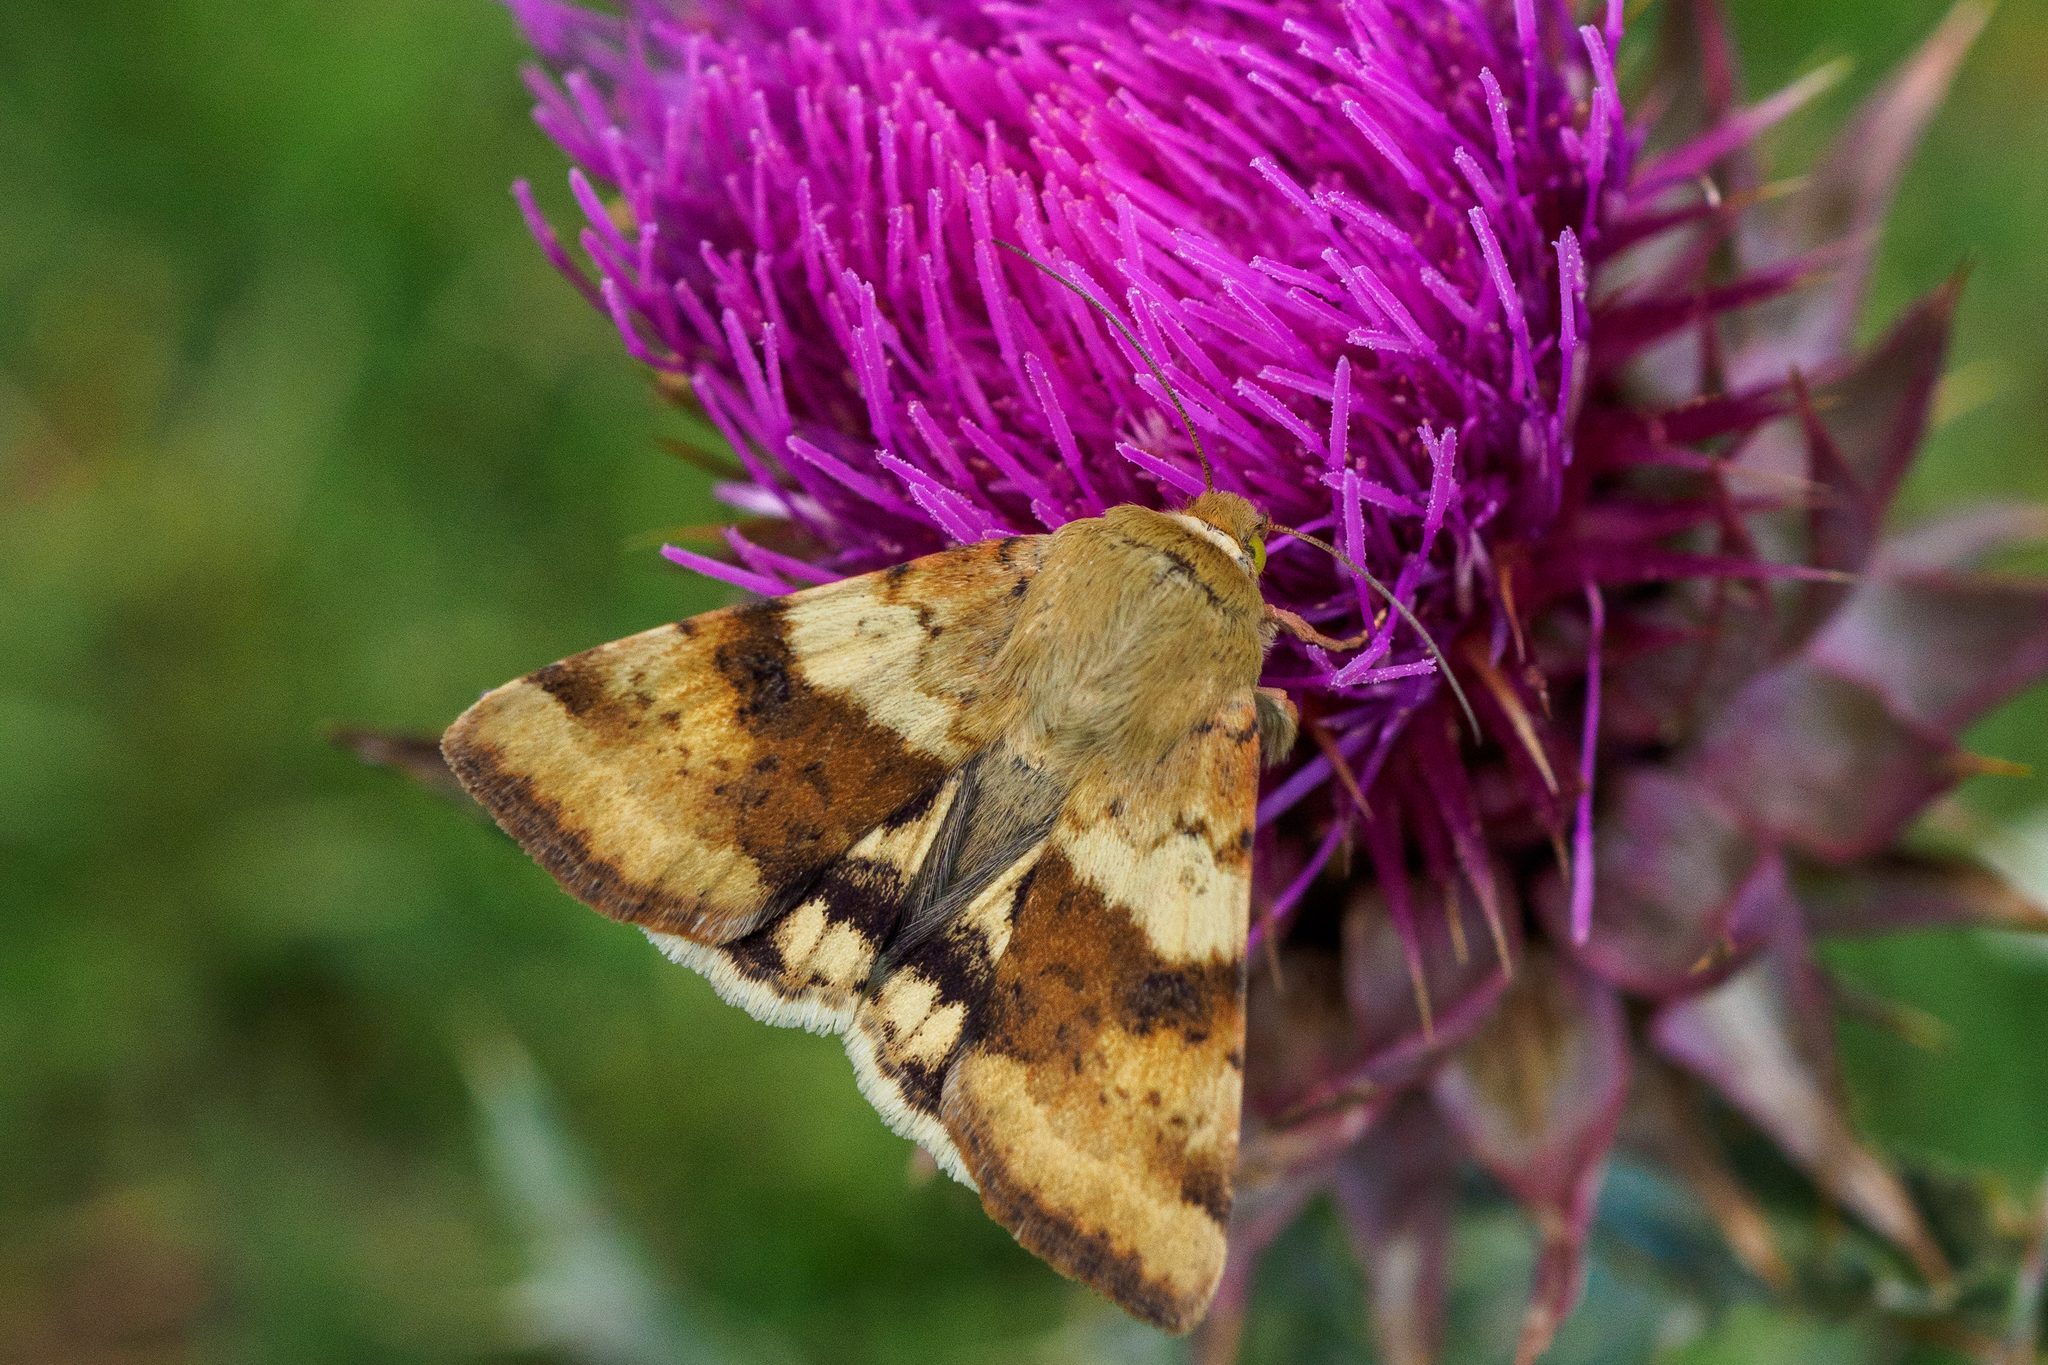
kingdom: Animalia
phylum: Arthropoda
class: Insecta
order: Lepidoptera
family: Noctuidae
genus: Heliothis
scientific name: Heliothis viriplaca
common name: Marbled clover
